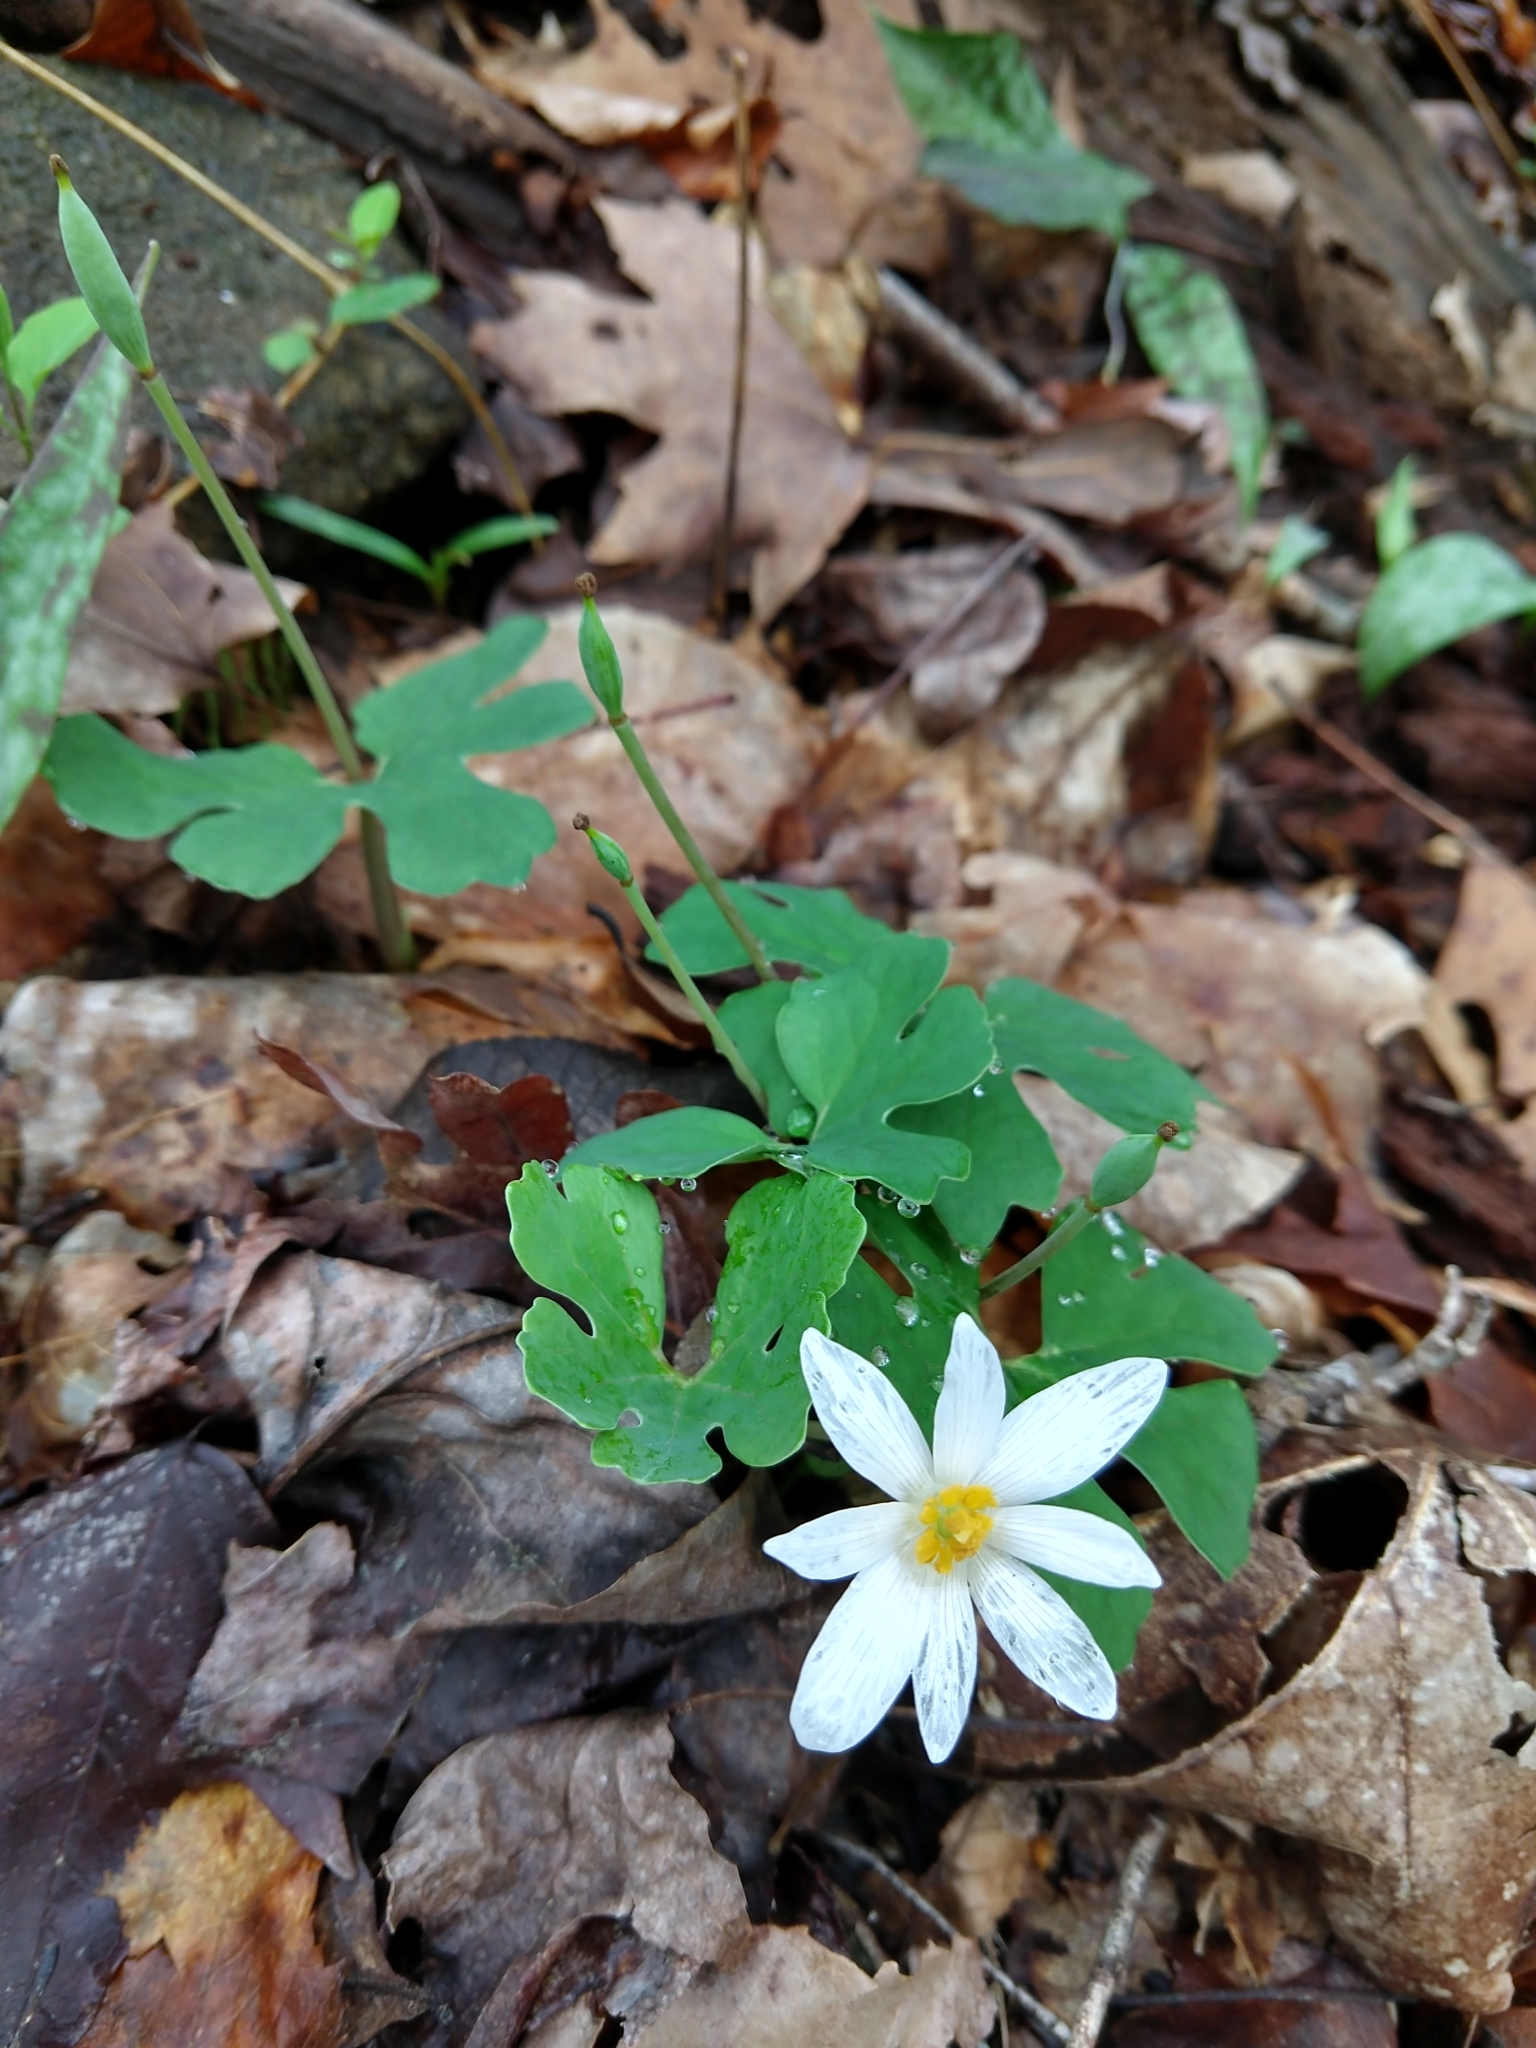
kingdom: Plantae
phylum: Tracheophyta
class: Magnoliopsida
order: Ranunculales
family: Papaveraceae
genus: Sanguinaria
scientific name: Sanguinaria canadensis
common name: Bloodroot
